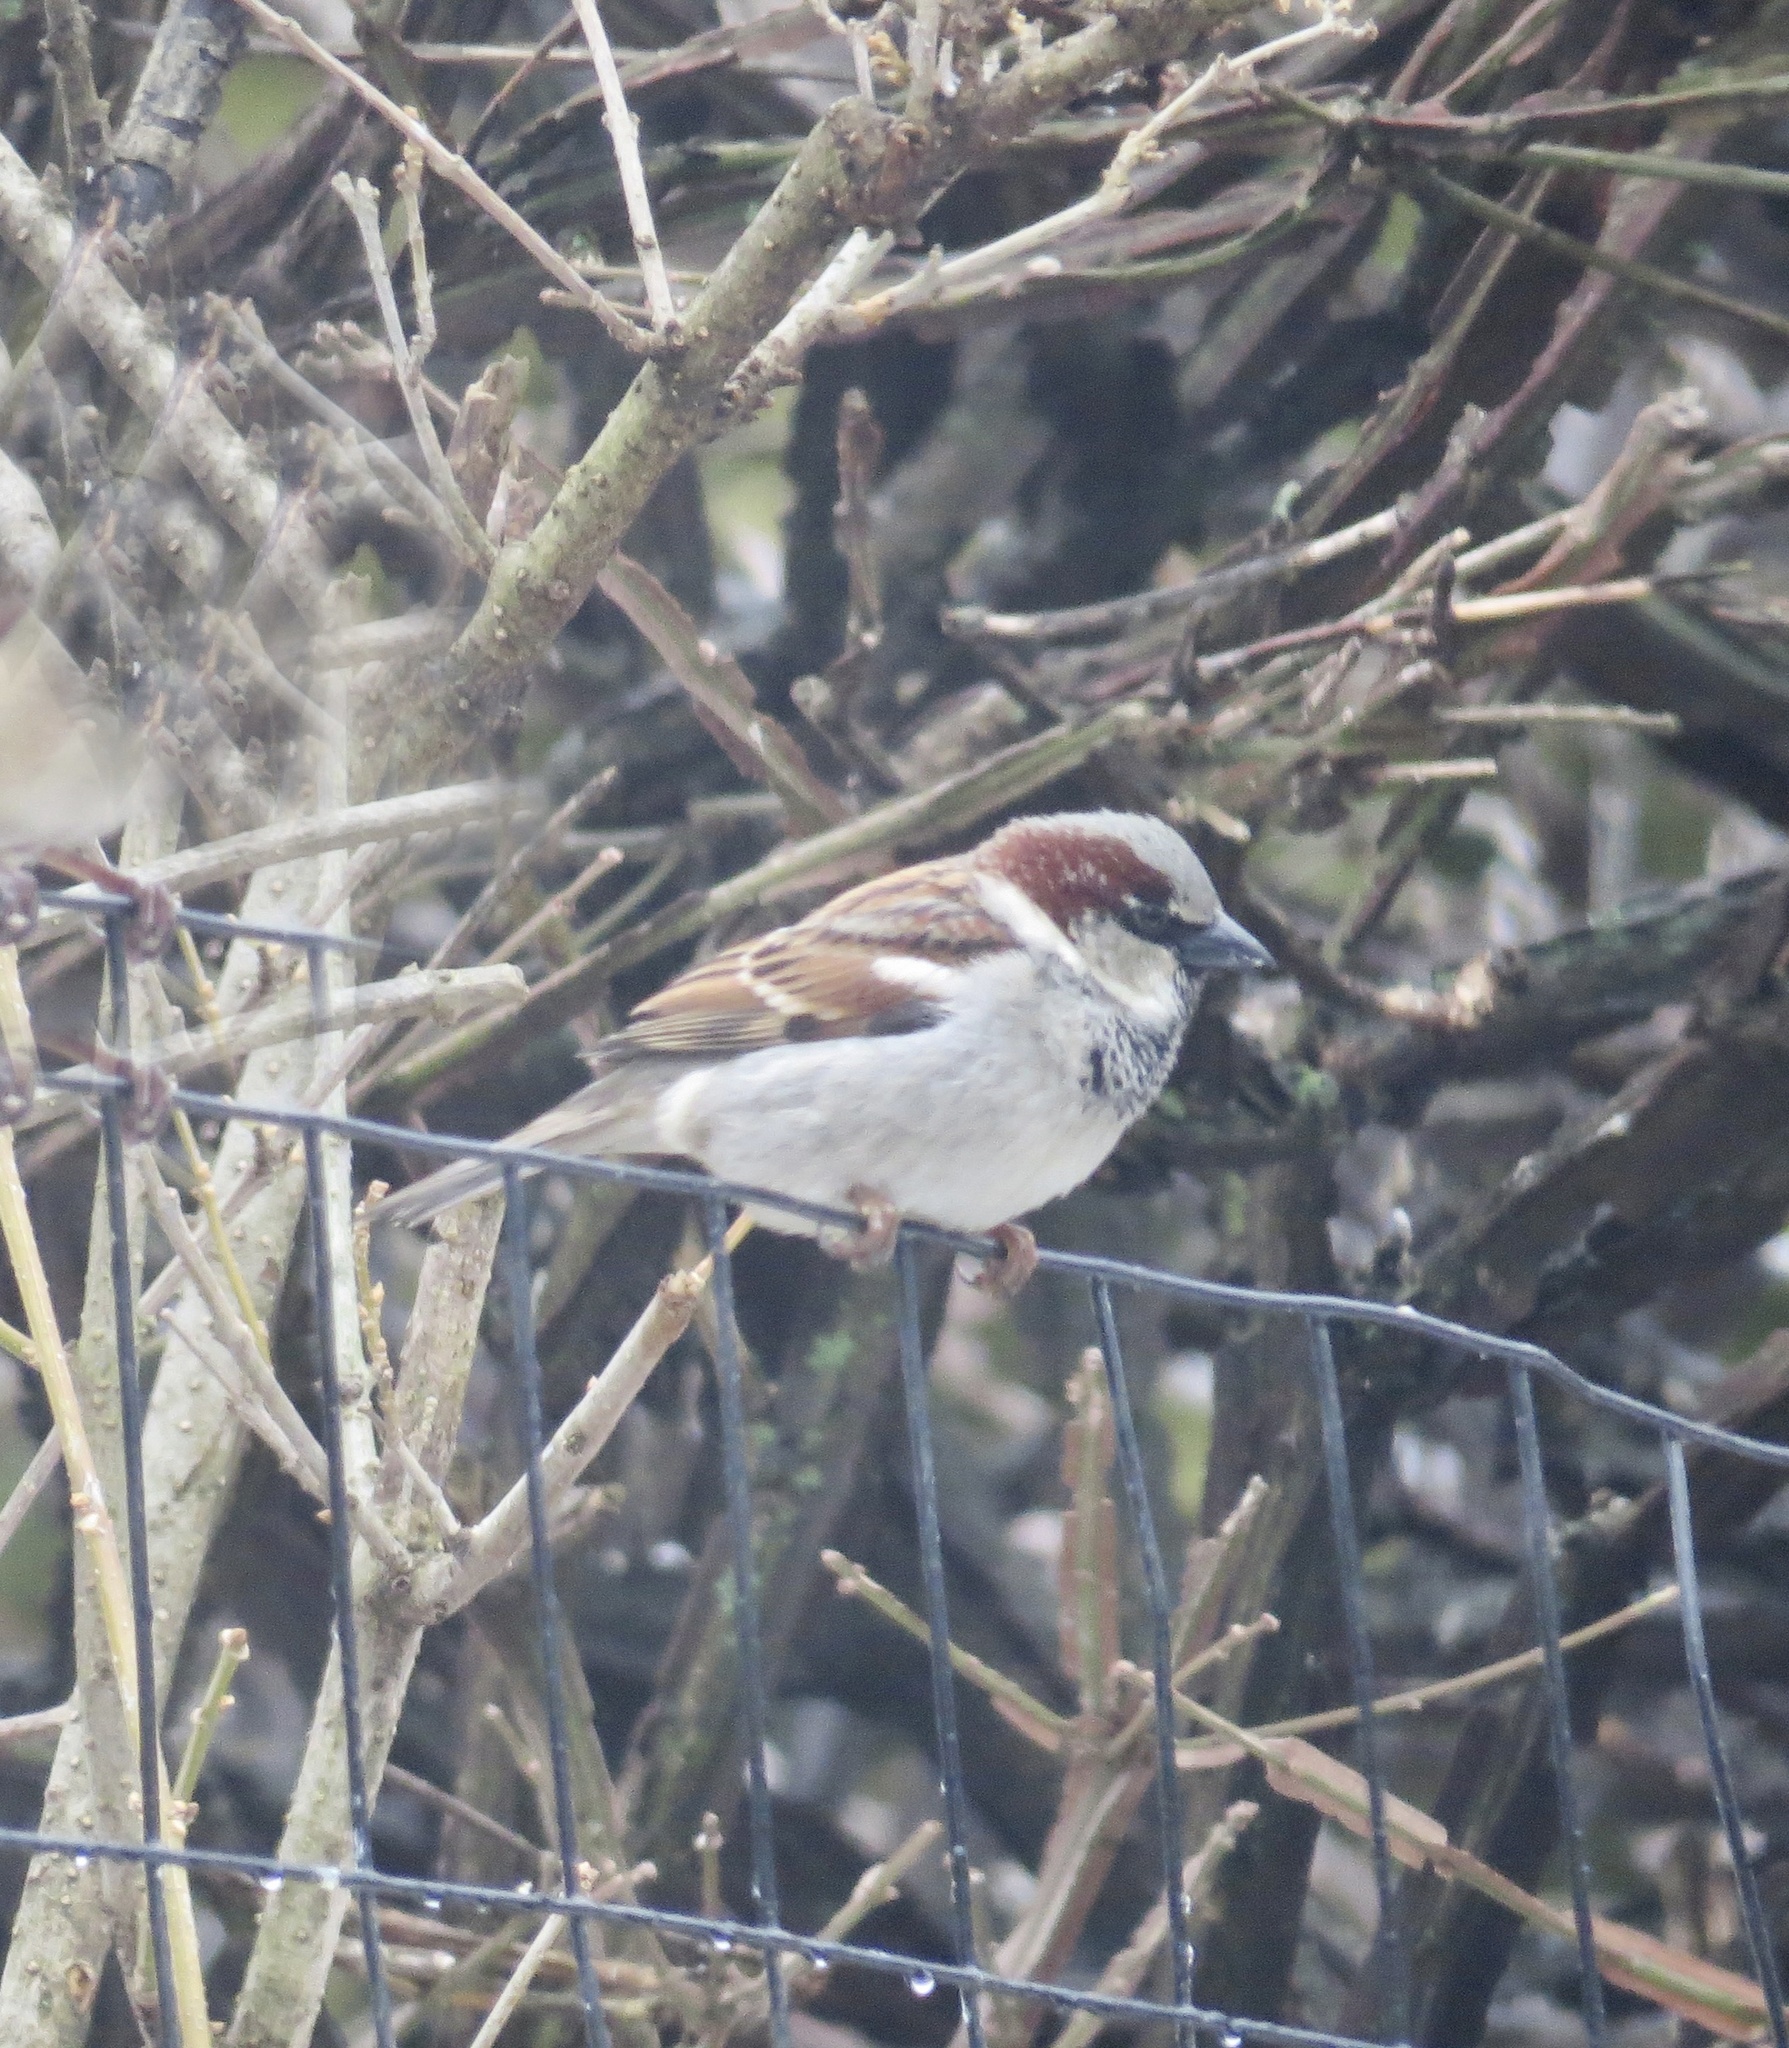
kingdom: Animalia
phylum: Chordata
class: Aves
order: Passeriformes
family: Passeridae
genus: Passer
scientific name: Passer domesticus
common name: House sparrow
